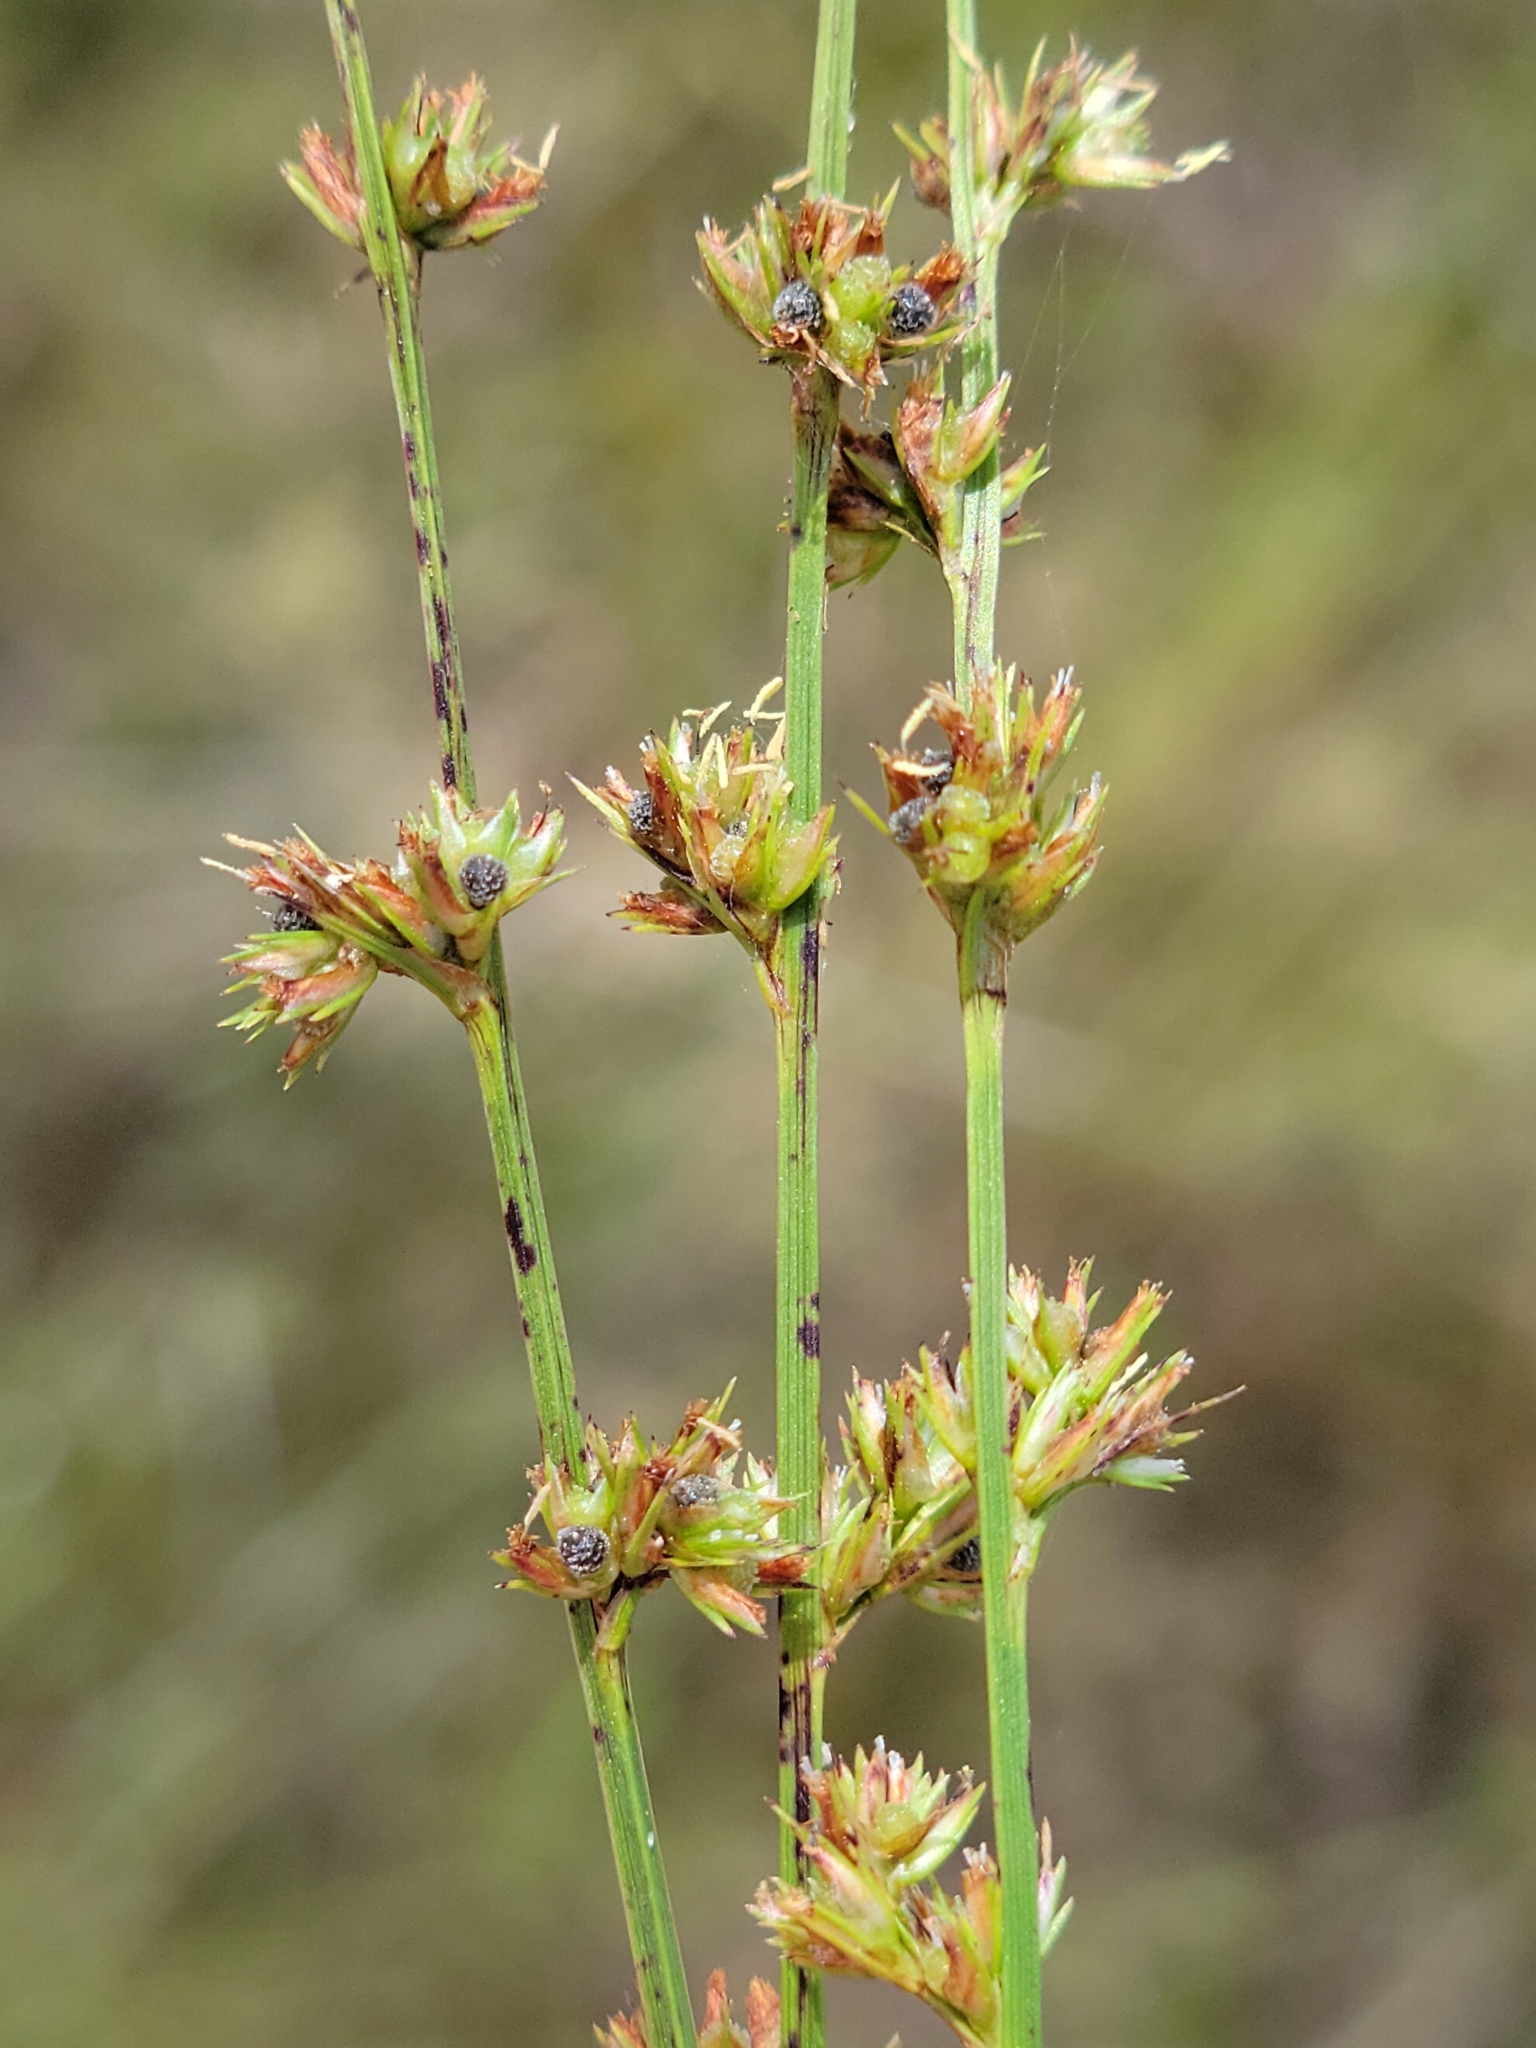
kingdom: Plantae
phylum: Tracheophyta
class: Liliopsida
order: Poales
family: Cyperaceae
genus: Scleria
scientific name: Scleria verticillata
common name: Low nutrush
